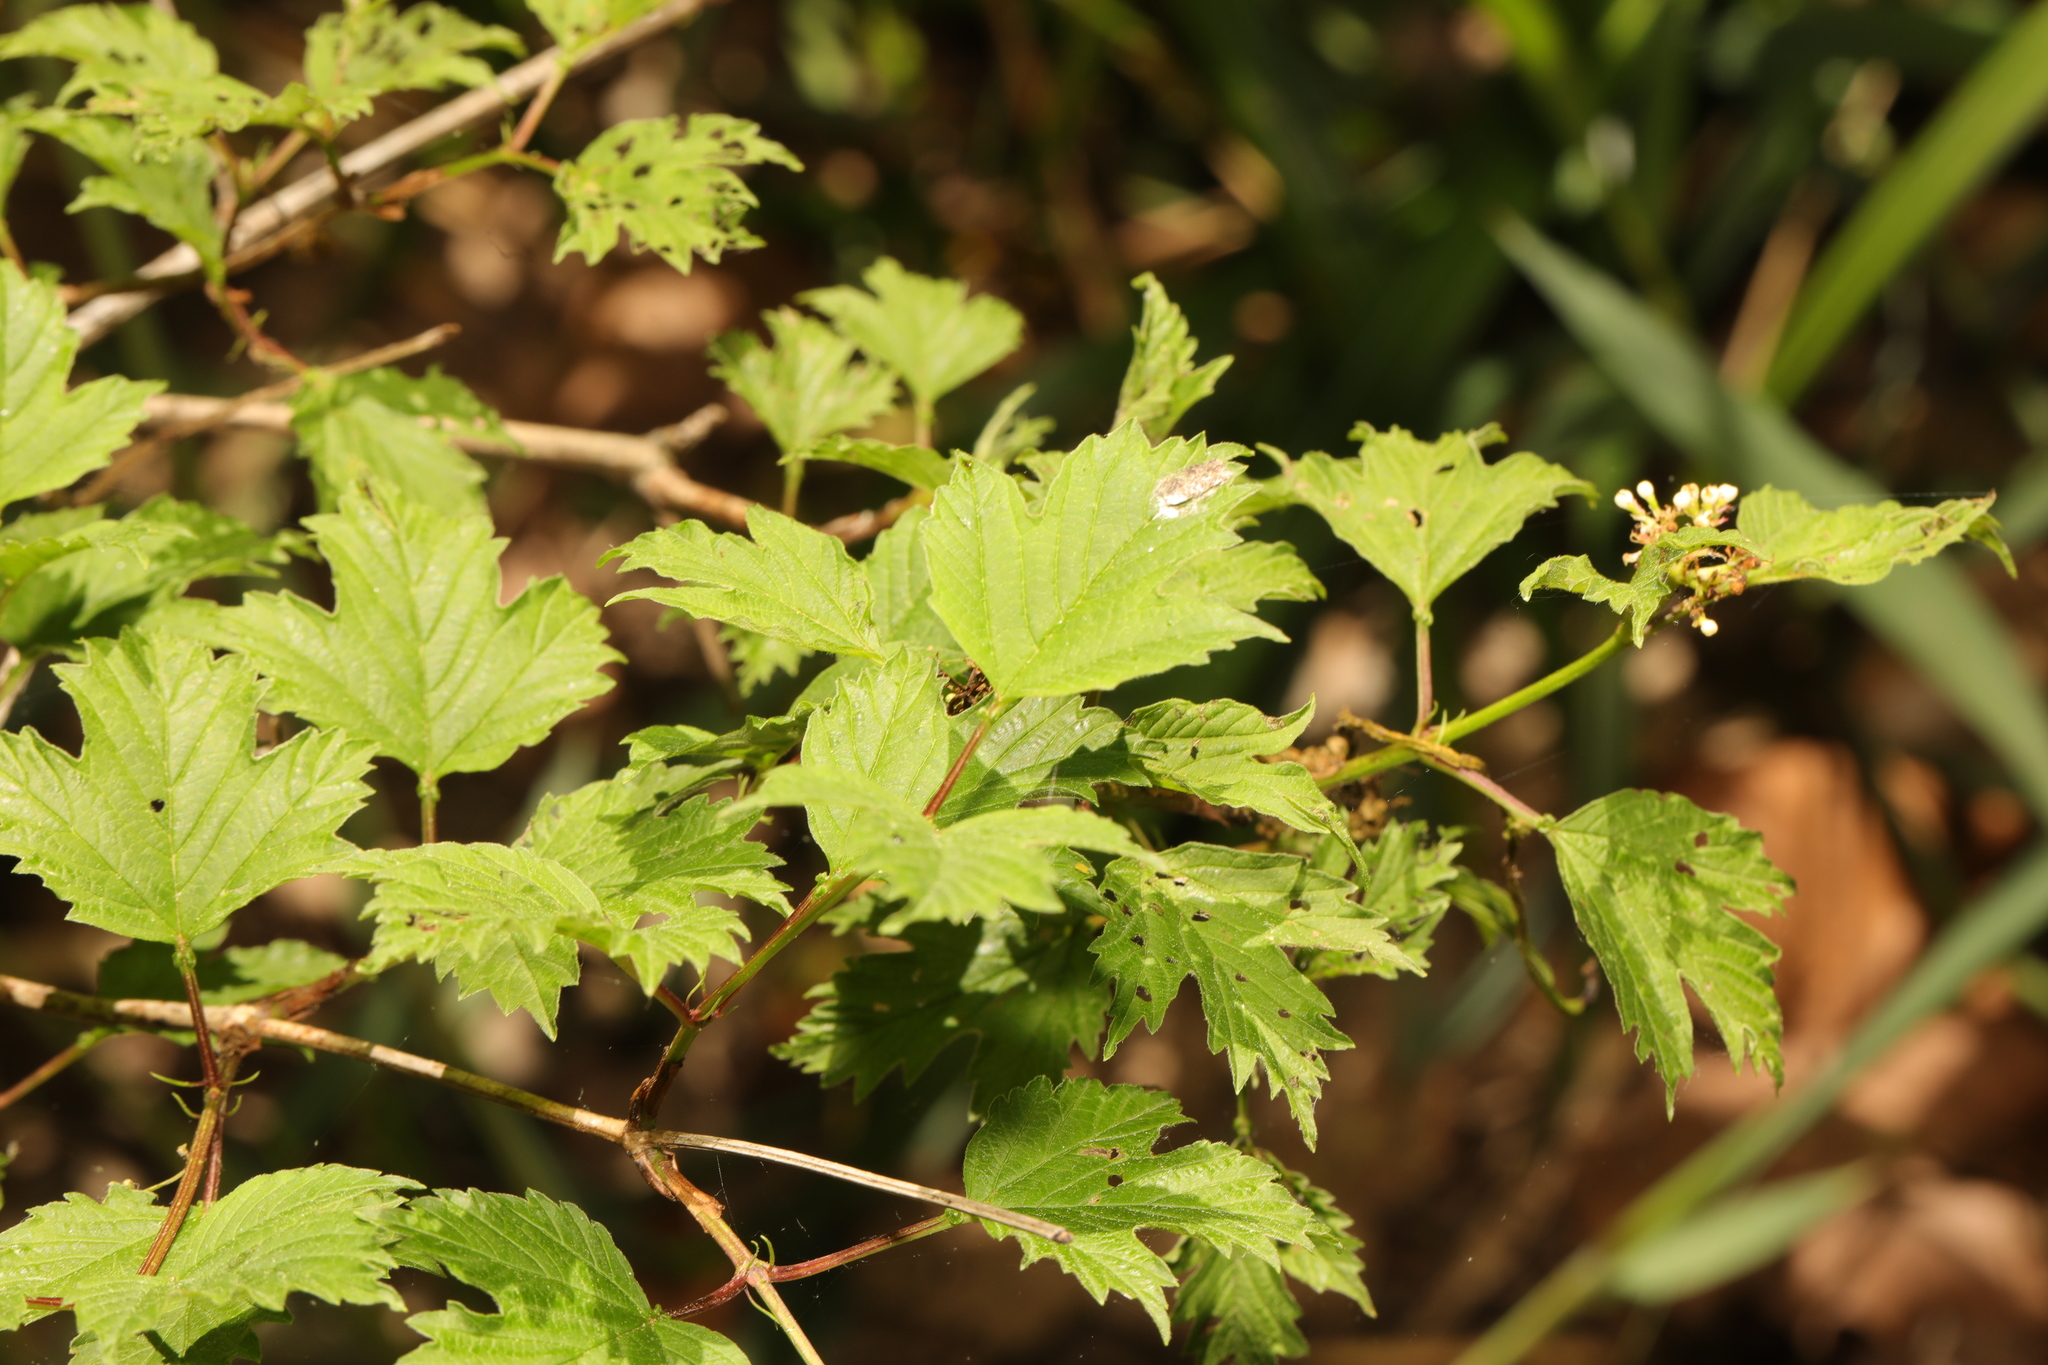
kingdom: Plantae
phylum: Tracheophyta
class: Magnoliopsida
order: Dipsacales
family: Viburnaceae
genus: Viburnum
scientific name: Viburnum opulus
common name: Guelder-rose
